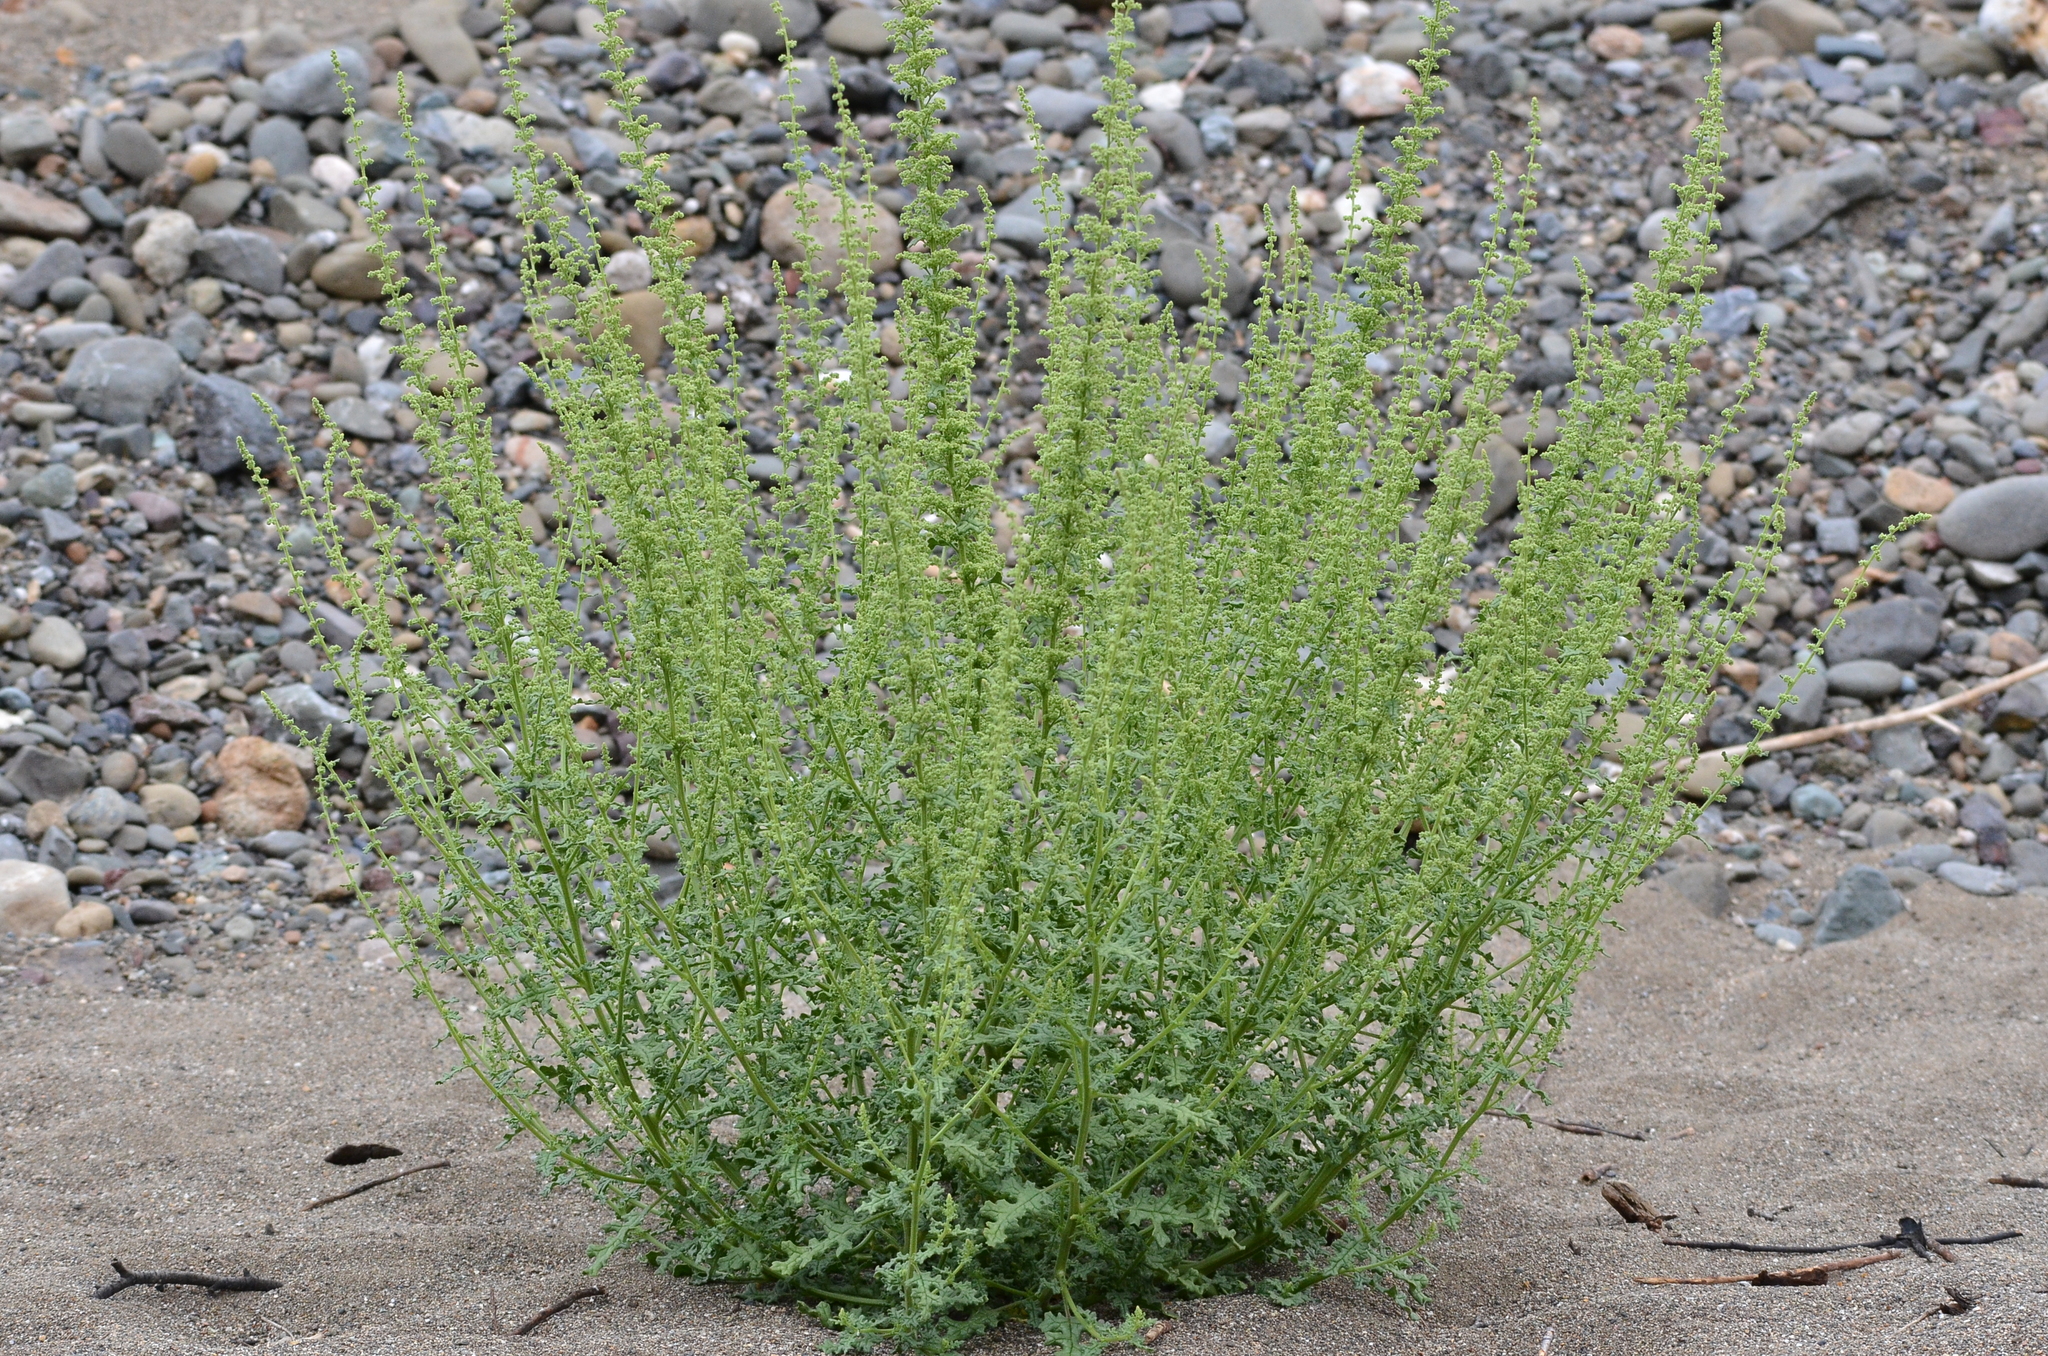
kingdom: Plantae
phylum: Tracheophyta
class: Magnoliopsida
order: Caryophyllales
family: Amaranthaceae
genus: Dysphania
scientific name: Dysphania botrys
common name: Feather-geranium
